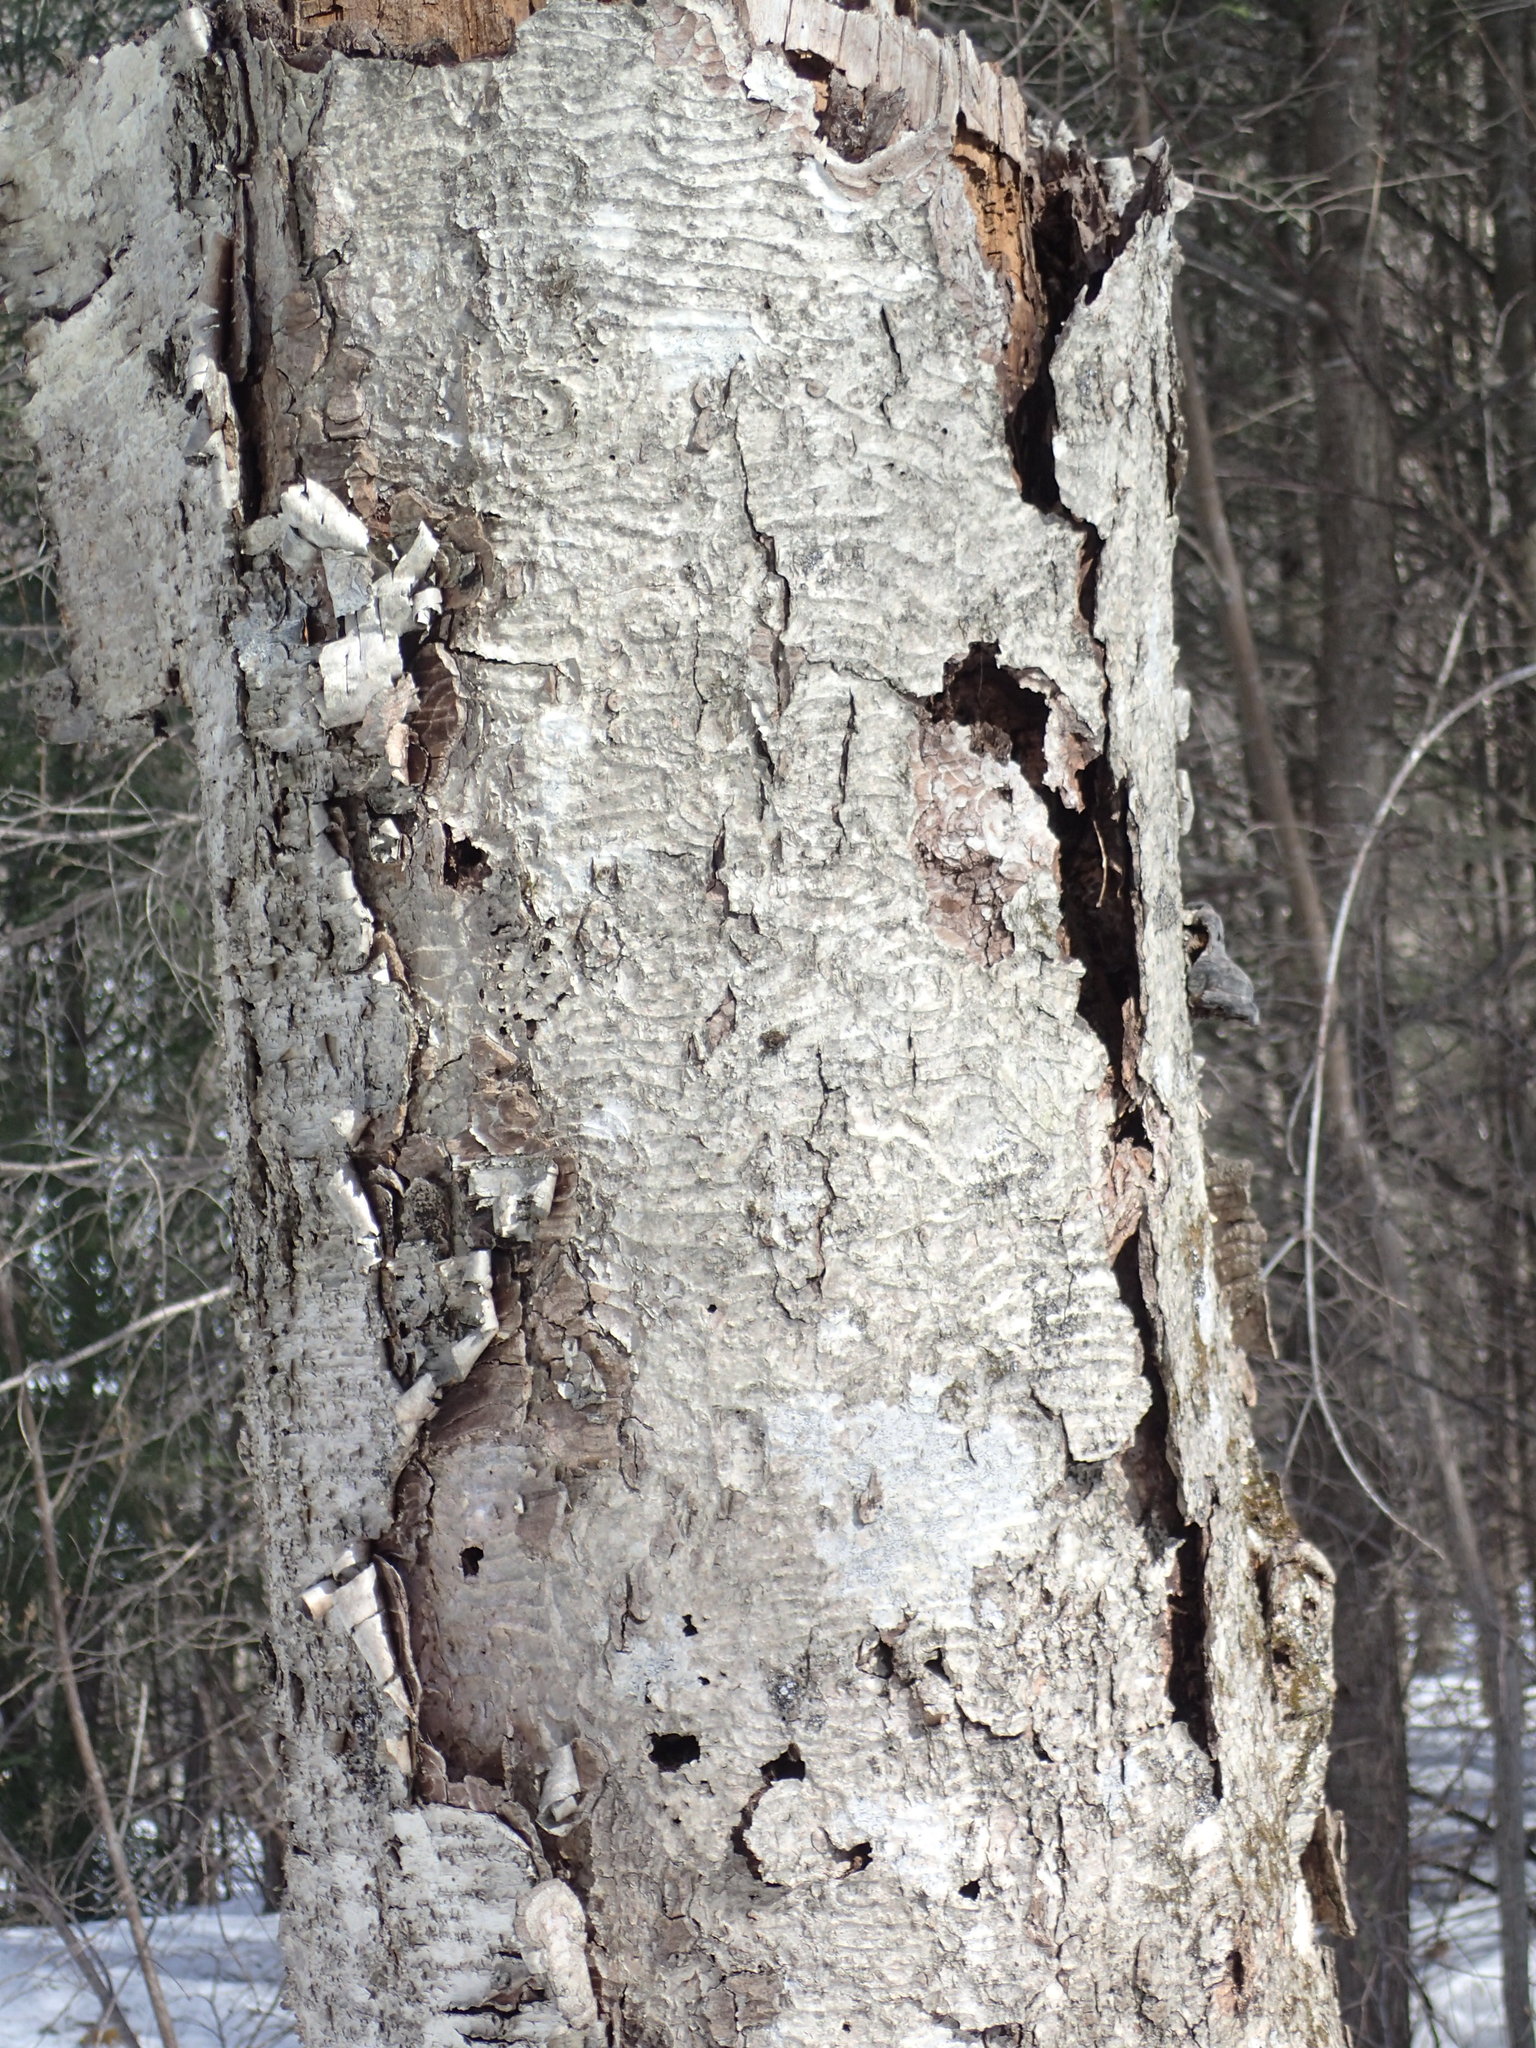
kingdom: Plantae
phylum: Tracheophyta
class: Magnoliopsida
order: Fagales
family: Betulaceae
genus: Betula
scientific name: Betula papyrifera
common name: Paper birch
